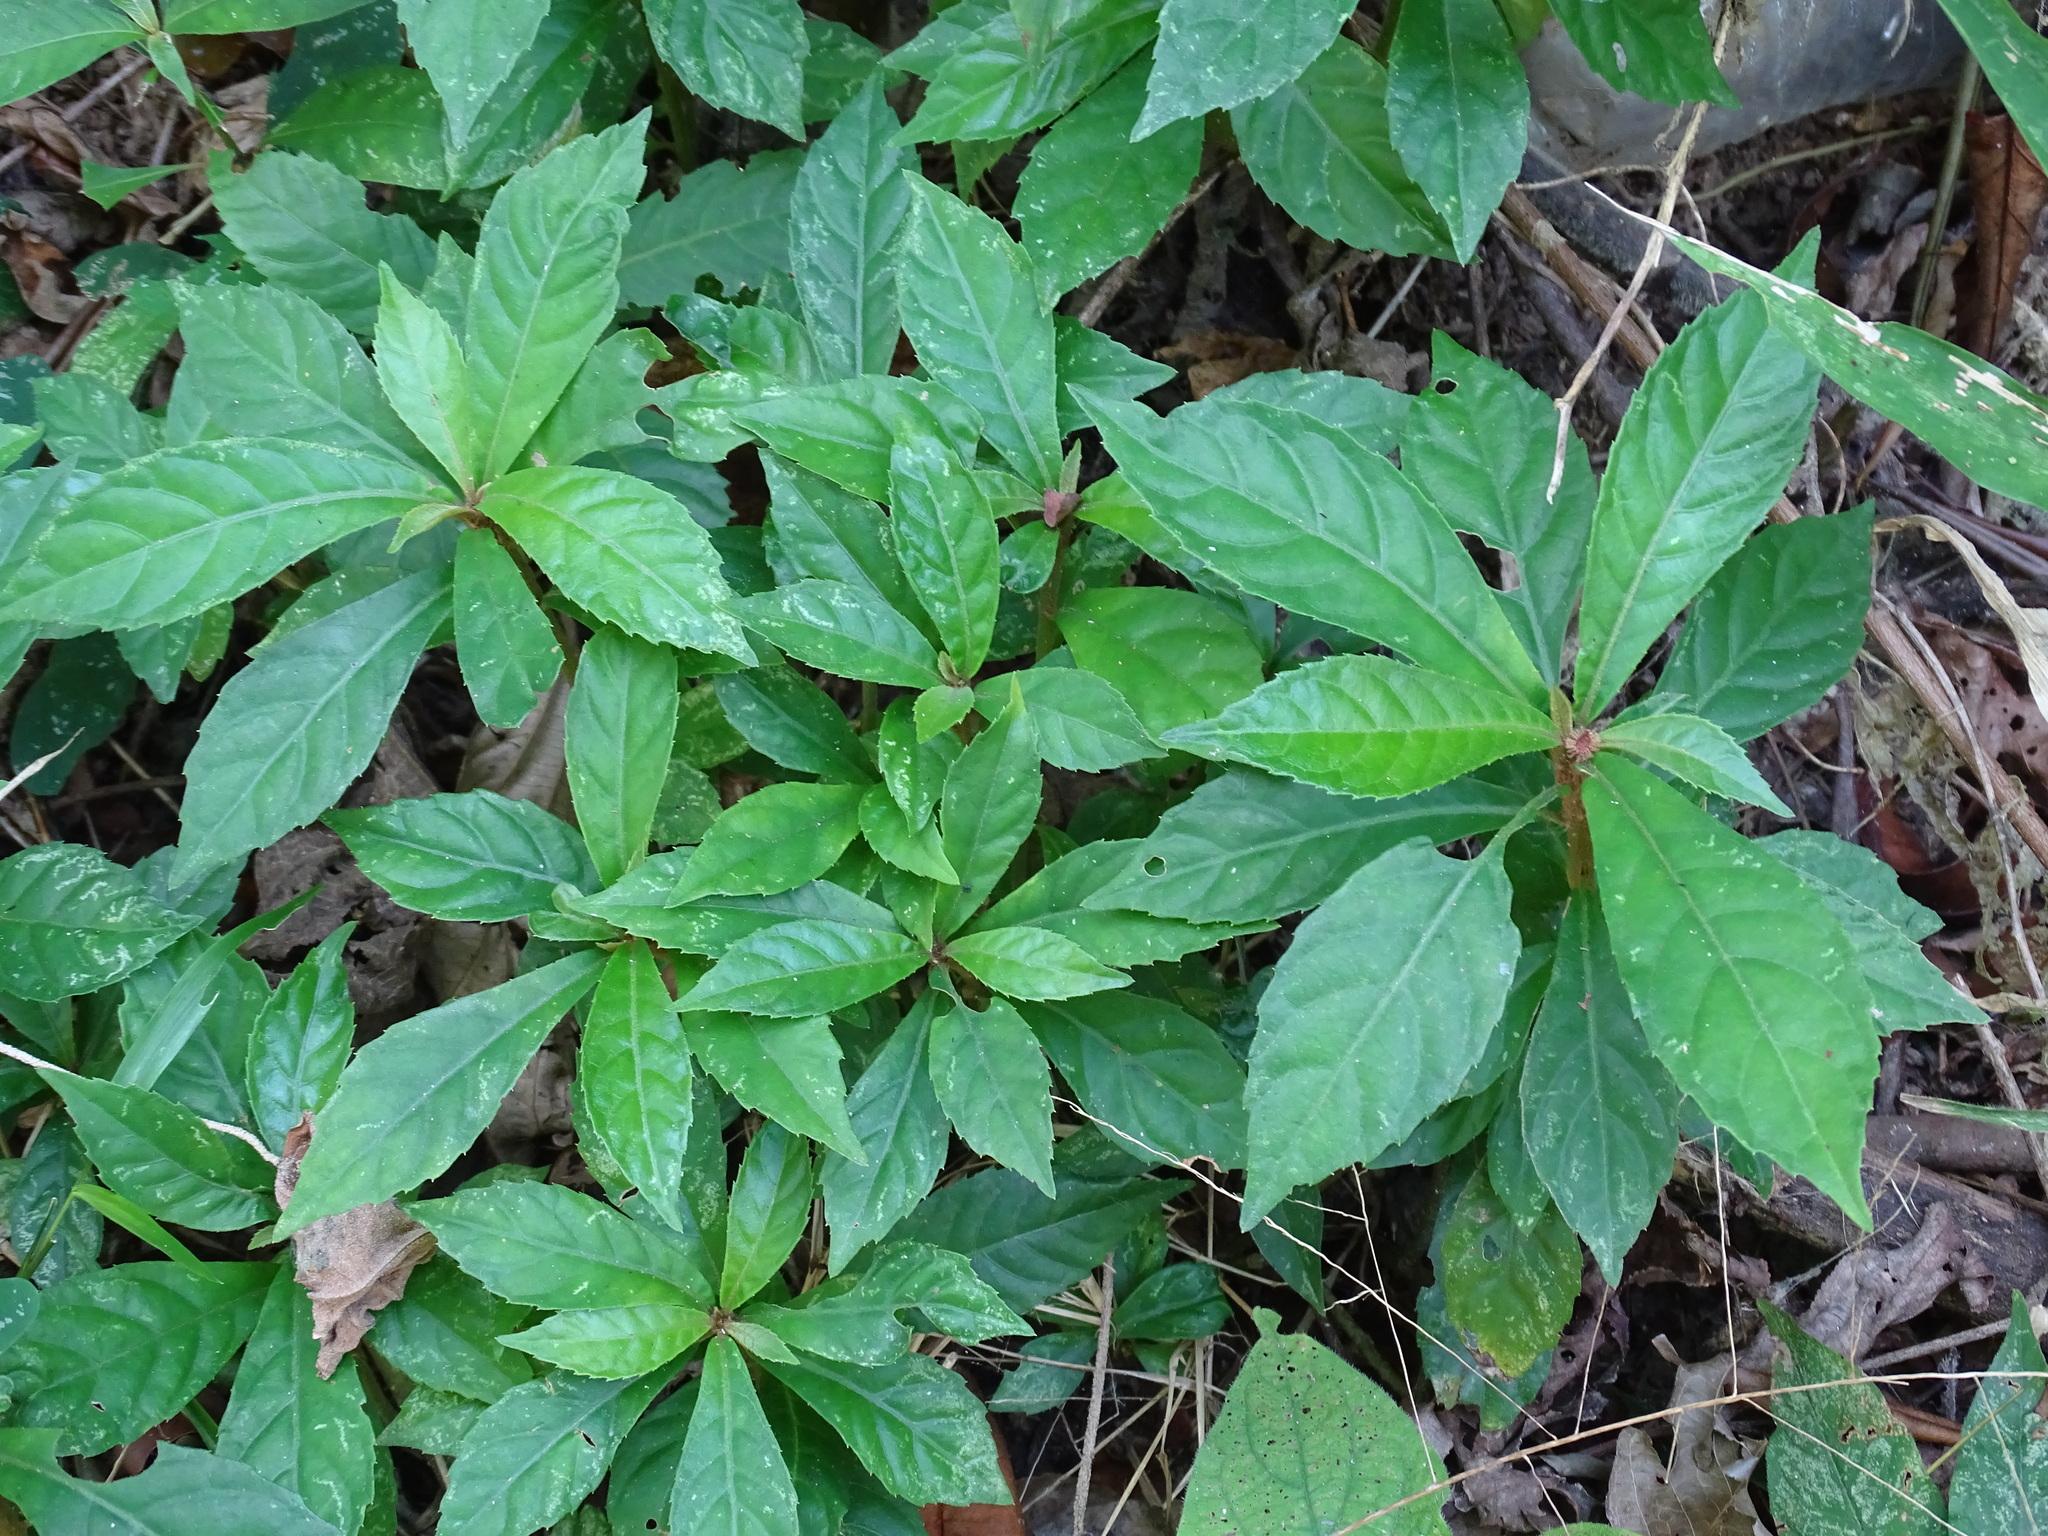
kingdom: Plantae
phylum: Tracheophyta
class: Magnoliopsida
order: Asterales
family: Asteraceae
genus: Lepidonia
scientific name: Lepidonia salvinae
